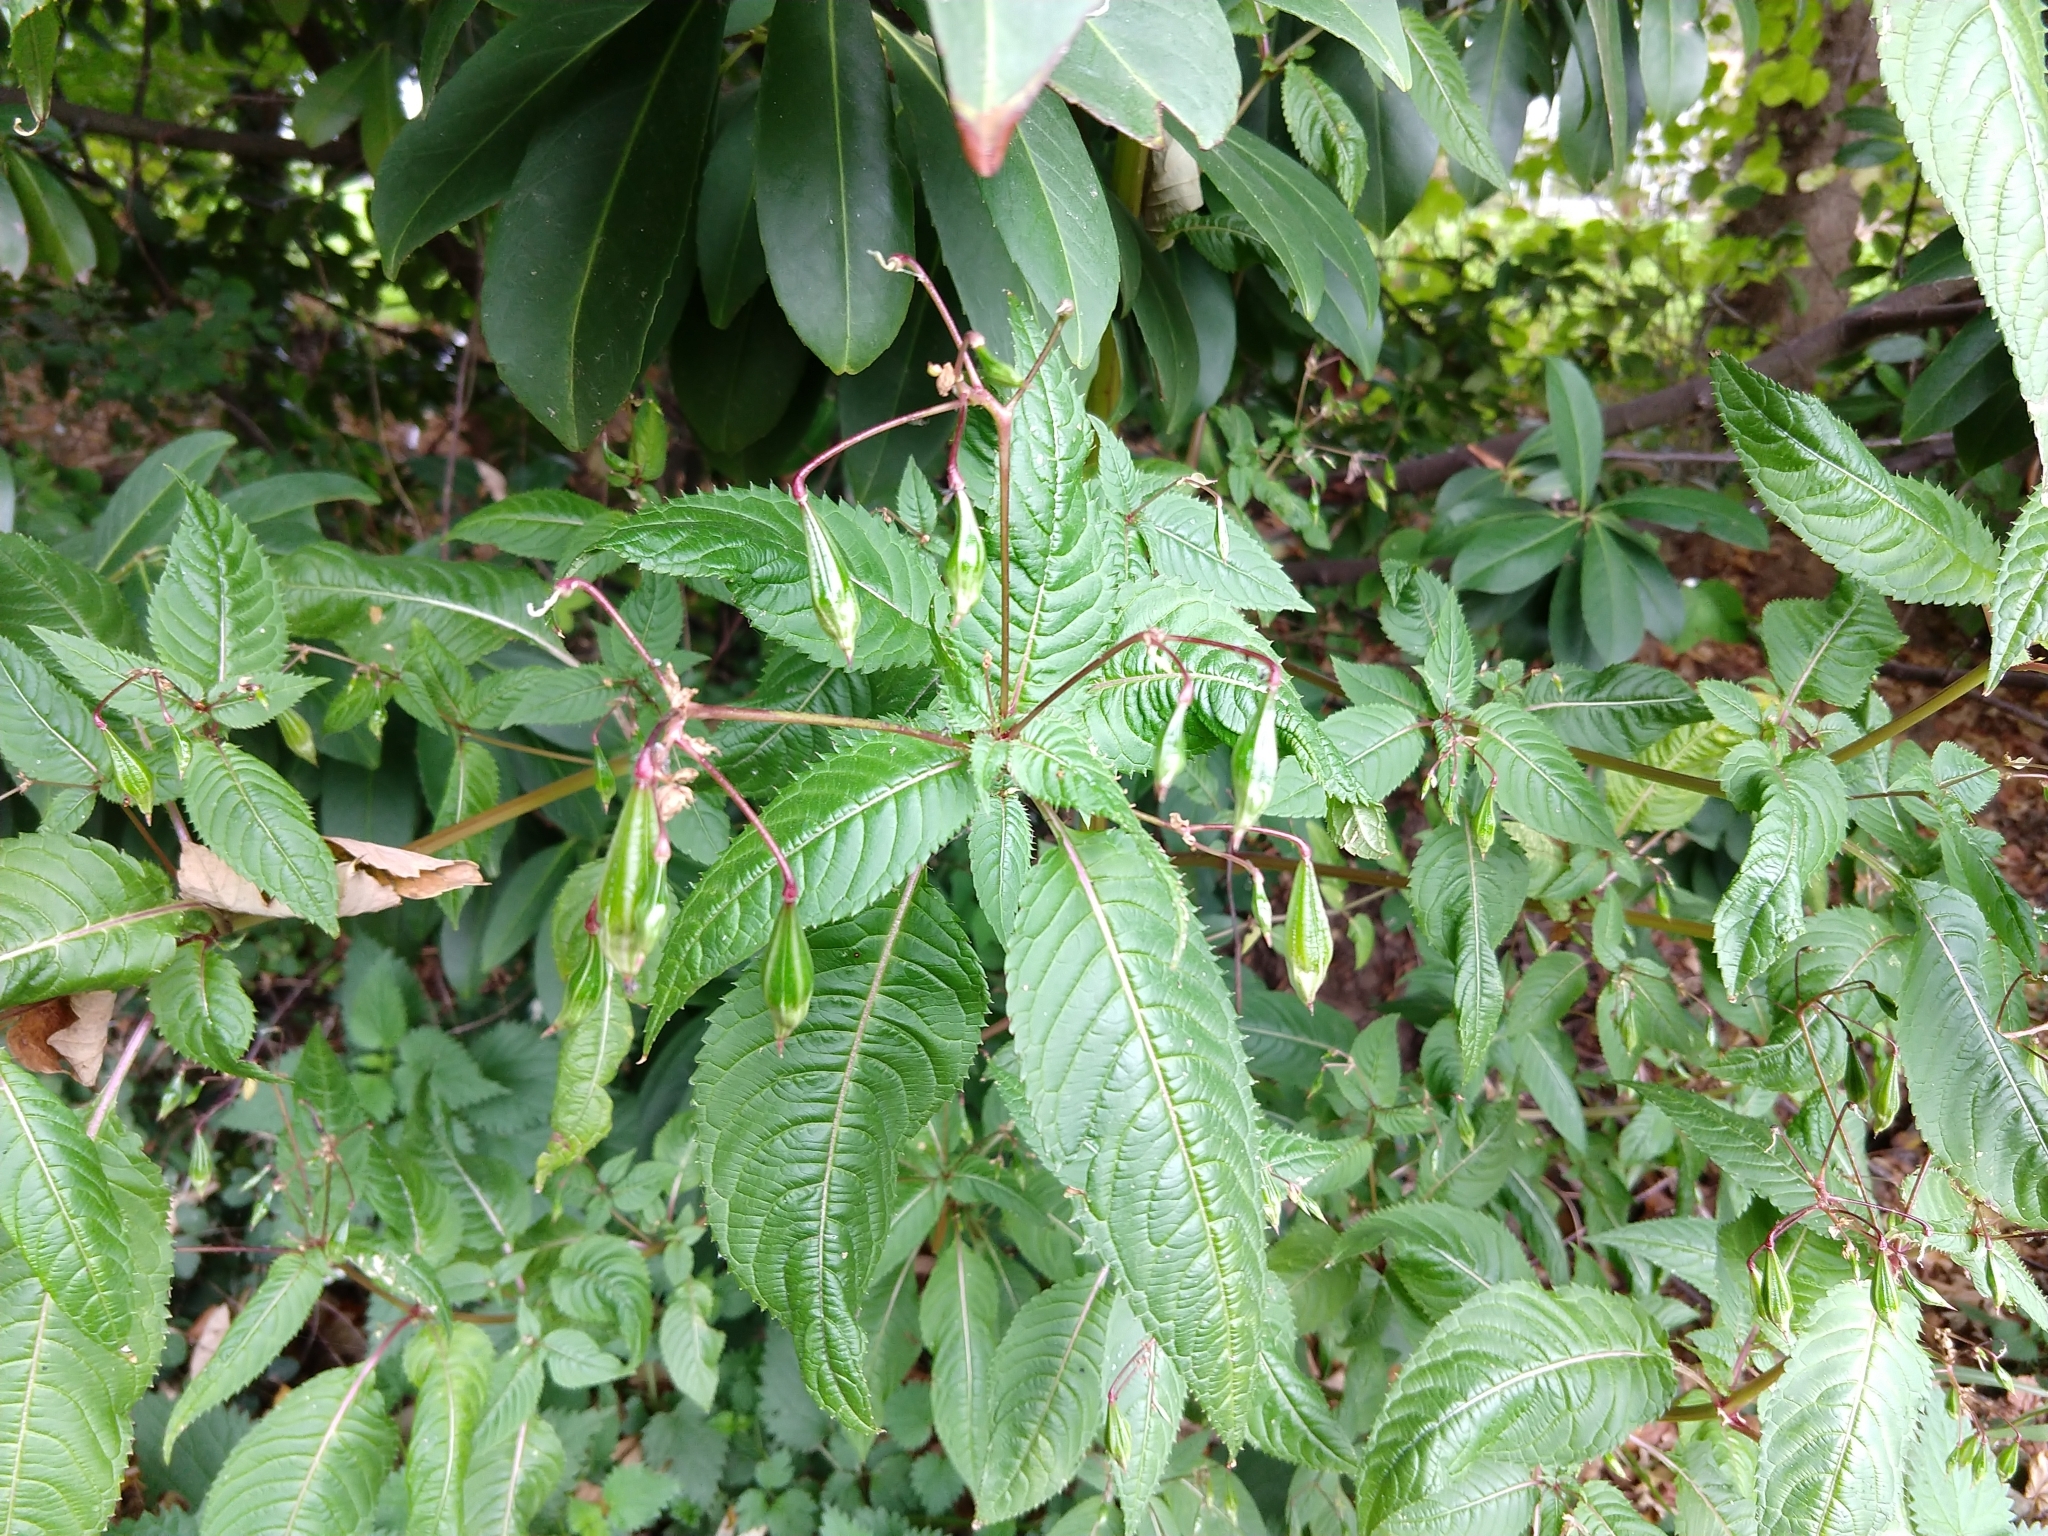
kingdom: Plantae
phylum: Tracheophyta
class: Magnoliopsida
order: Ericales
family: Balsaminaceae
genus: Impatiens
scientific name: Impatiens glandulifera
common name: Himalayan balsam
